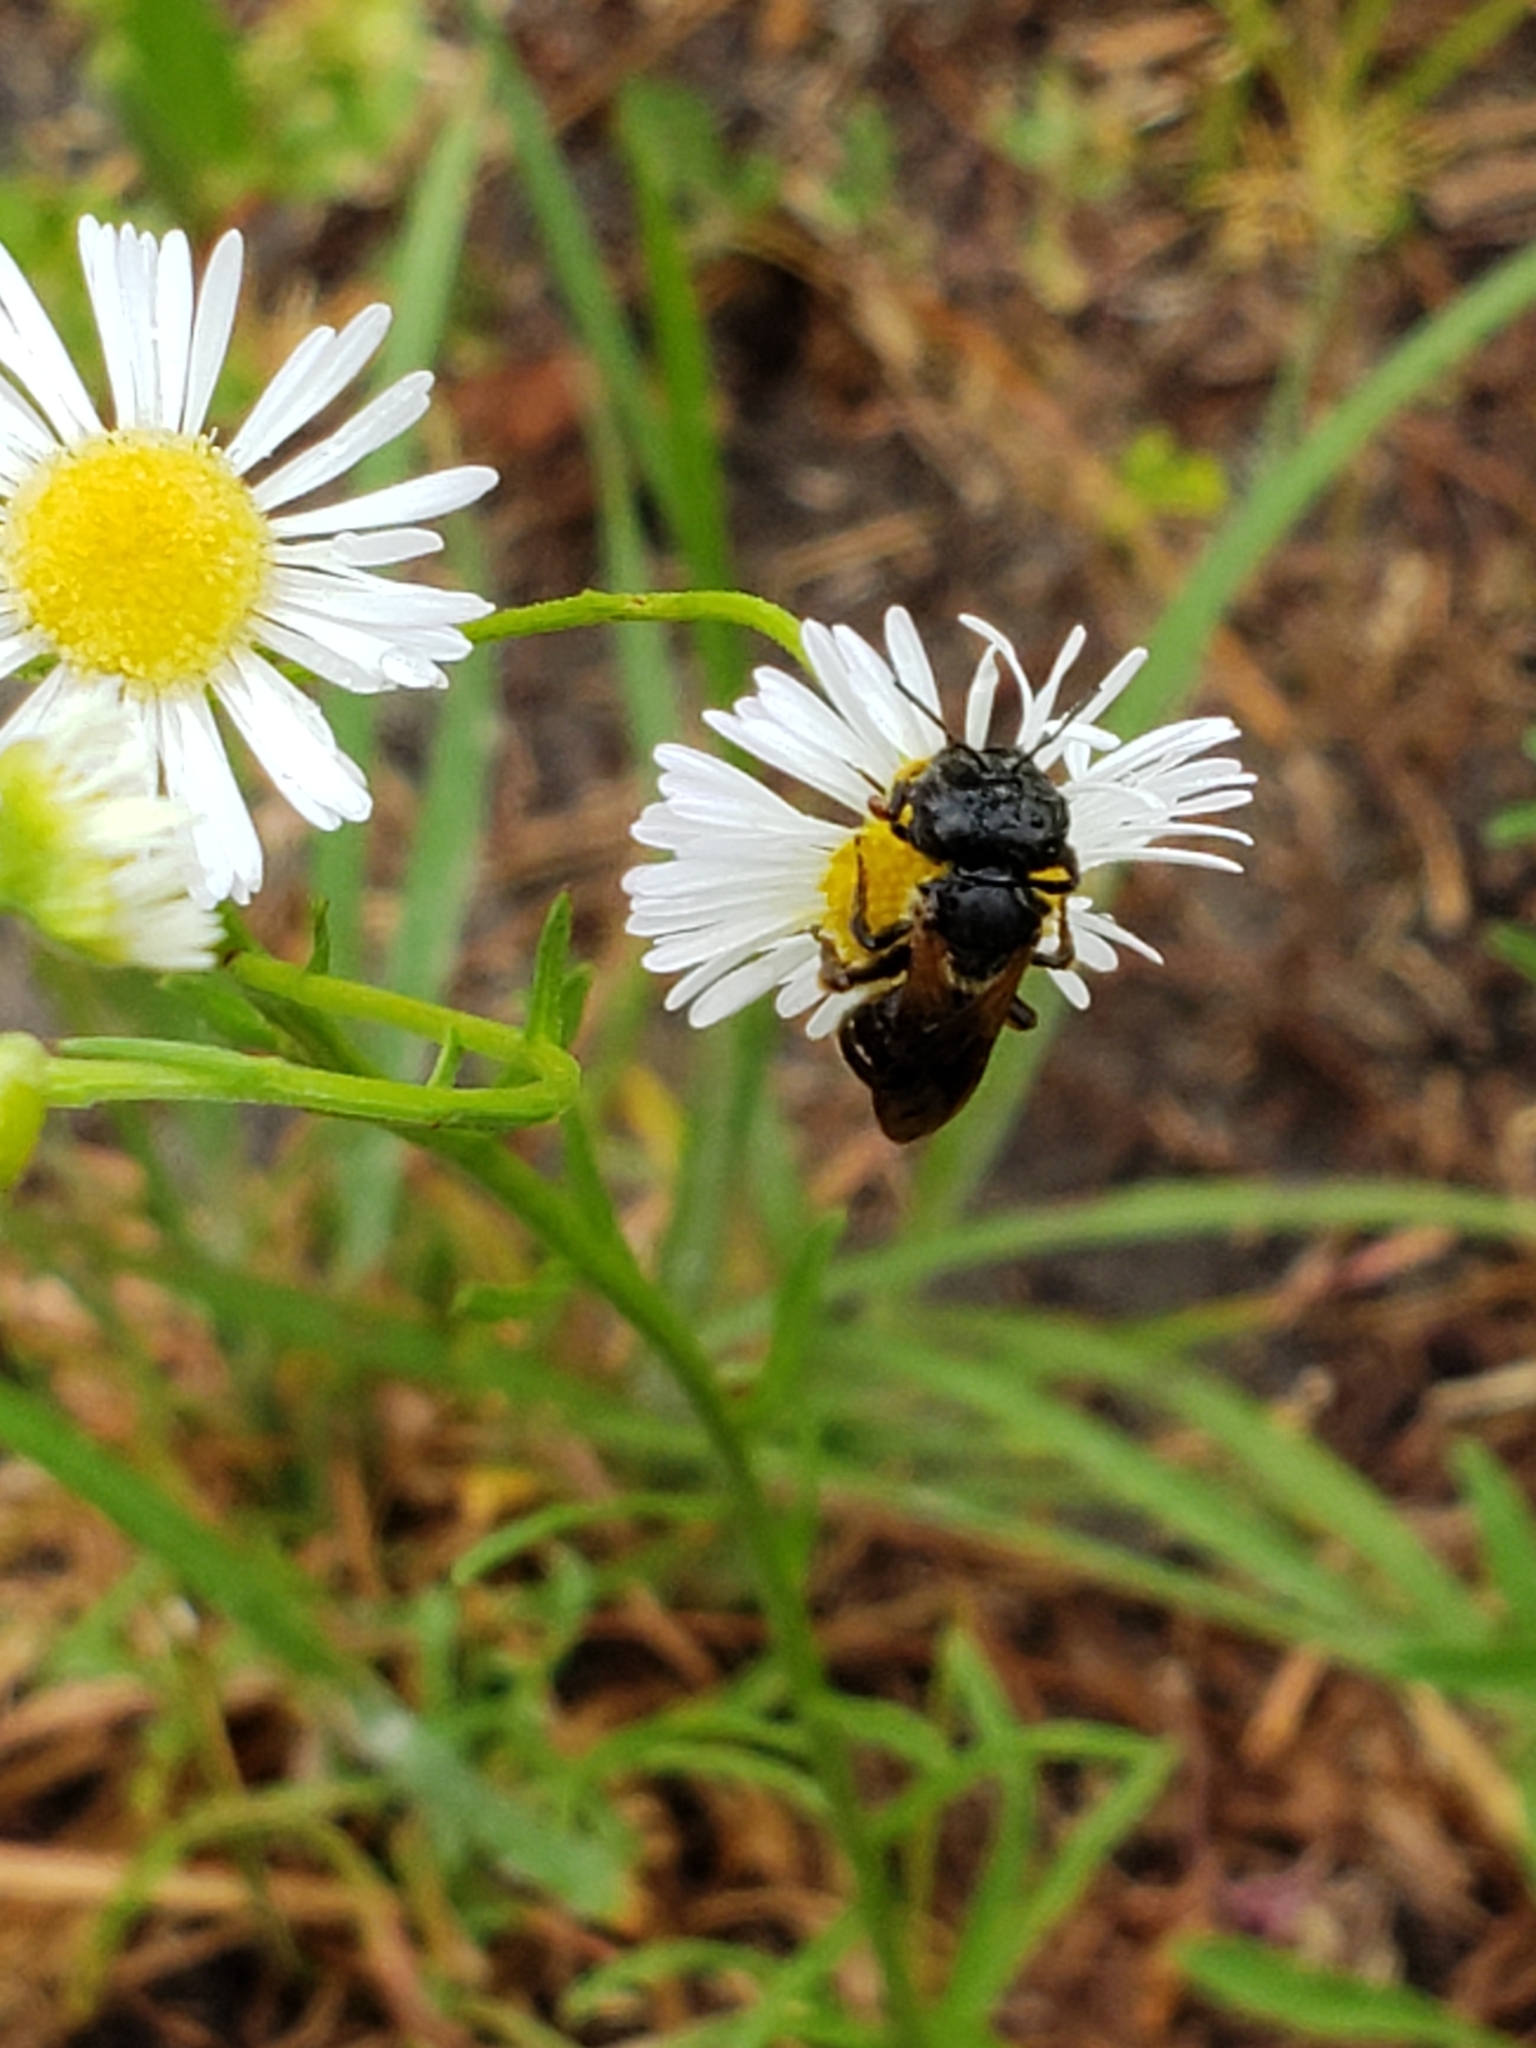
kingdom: Animalia
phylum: Arthropoda
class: Insecta
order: Hymenoptera
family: Halictidae
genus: Halictus
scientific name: Halictus poeyi
